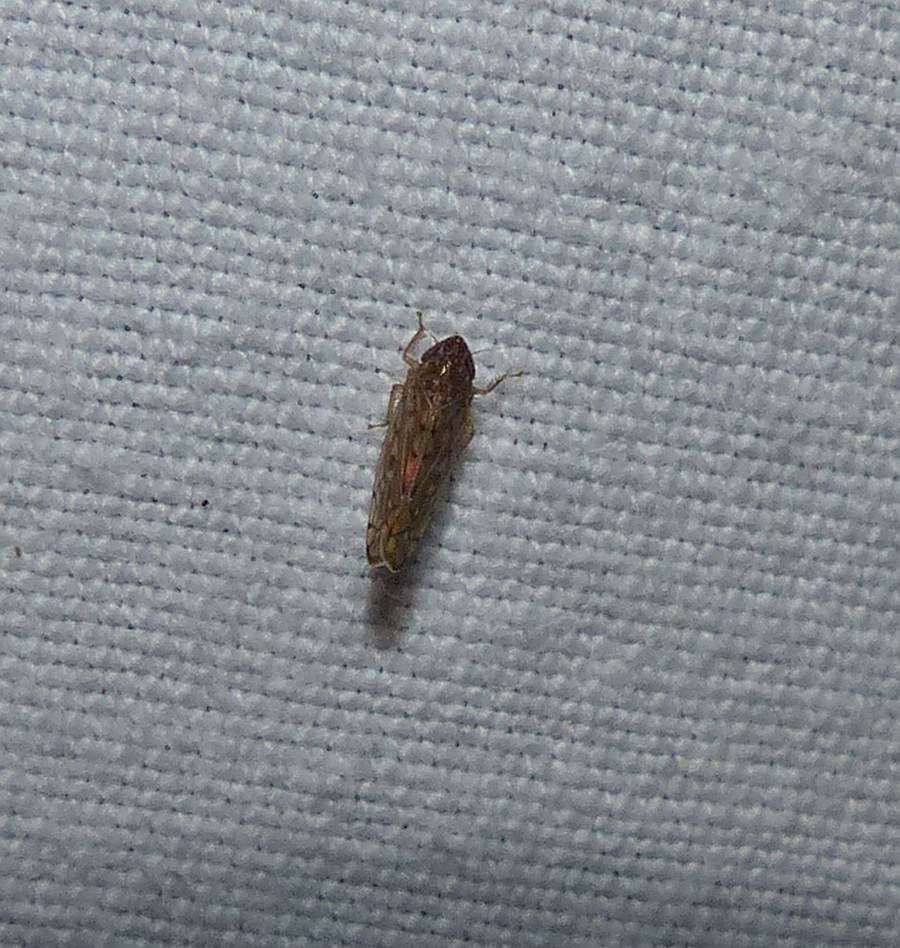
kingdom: Animalia
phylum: Arthropoda
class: Insecta
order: Hemiptera
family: Cicadellidae
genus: Osbornellus
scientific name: Osbornellus consors
